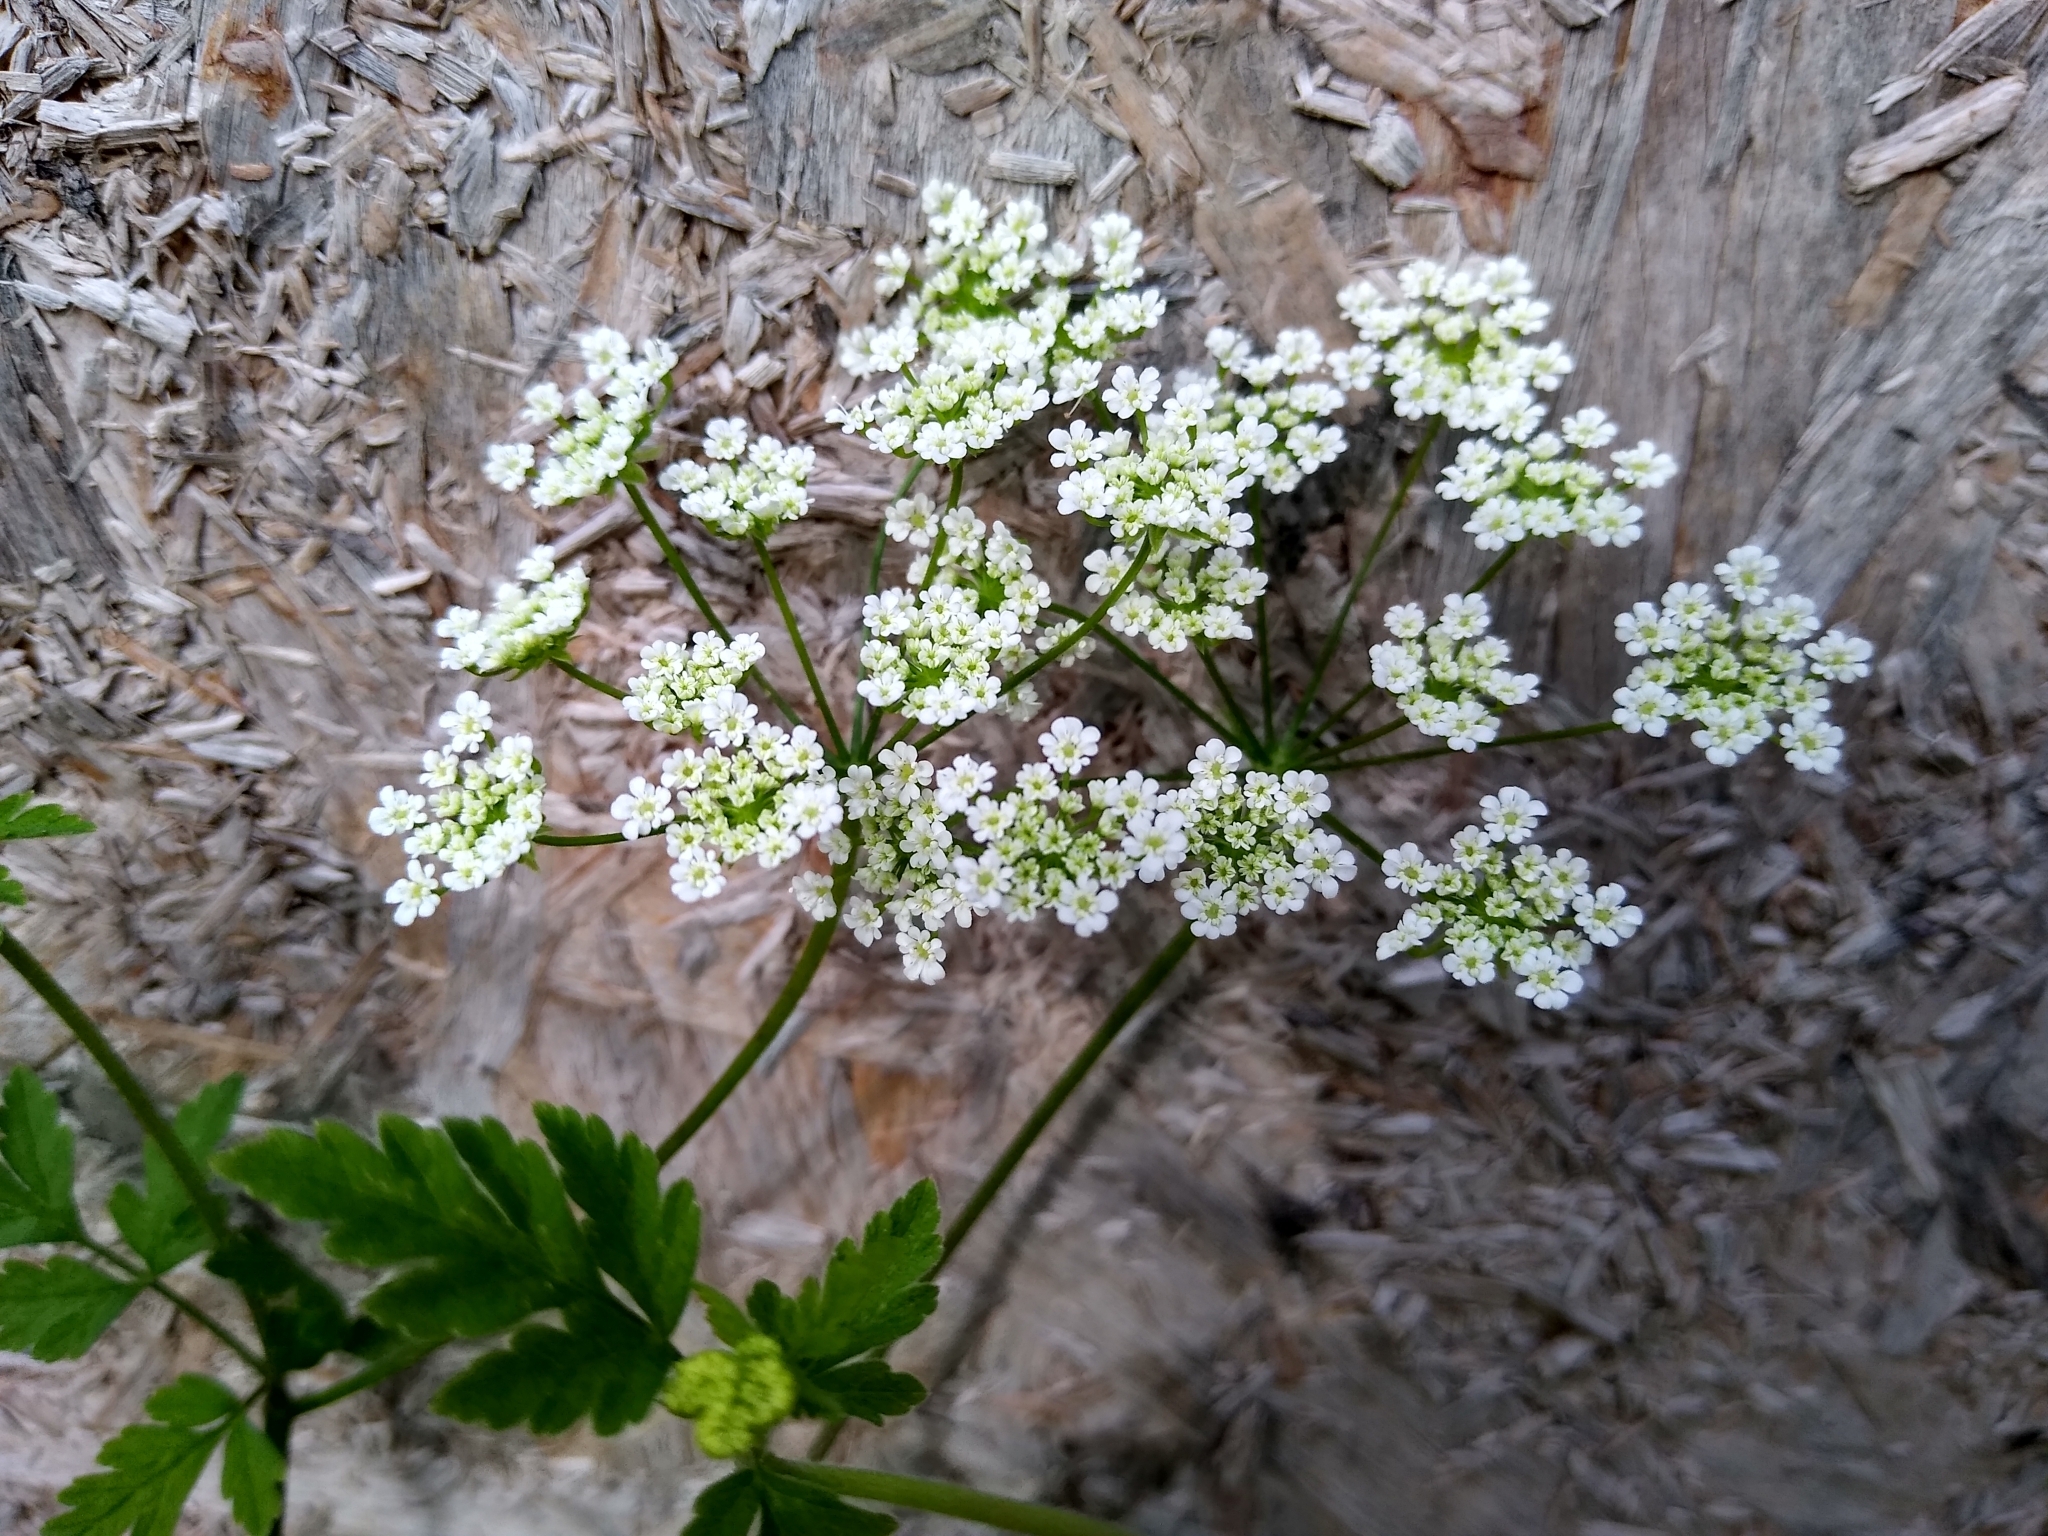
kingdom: Plantae
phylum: Tracheophyta
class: Magnoliopsida
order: Apiales
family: Apiaceae
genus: Chaerophyllum
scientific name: Chaerophyllum temulum
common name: Rough chervil
